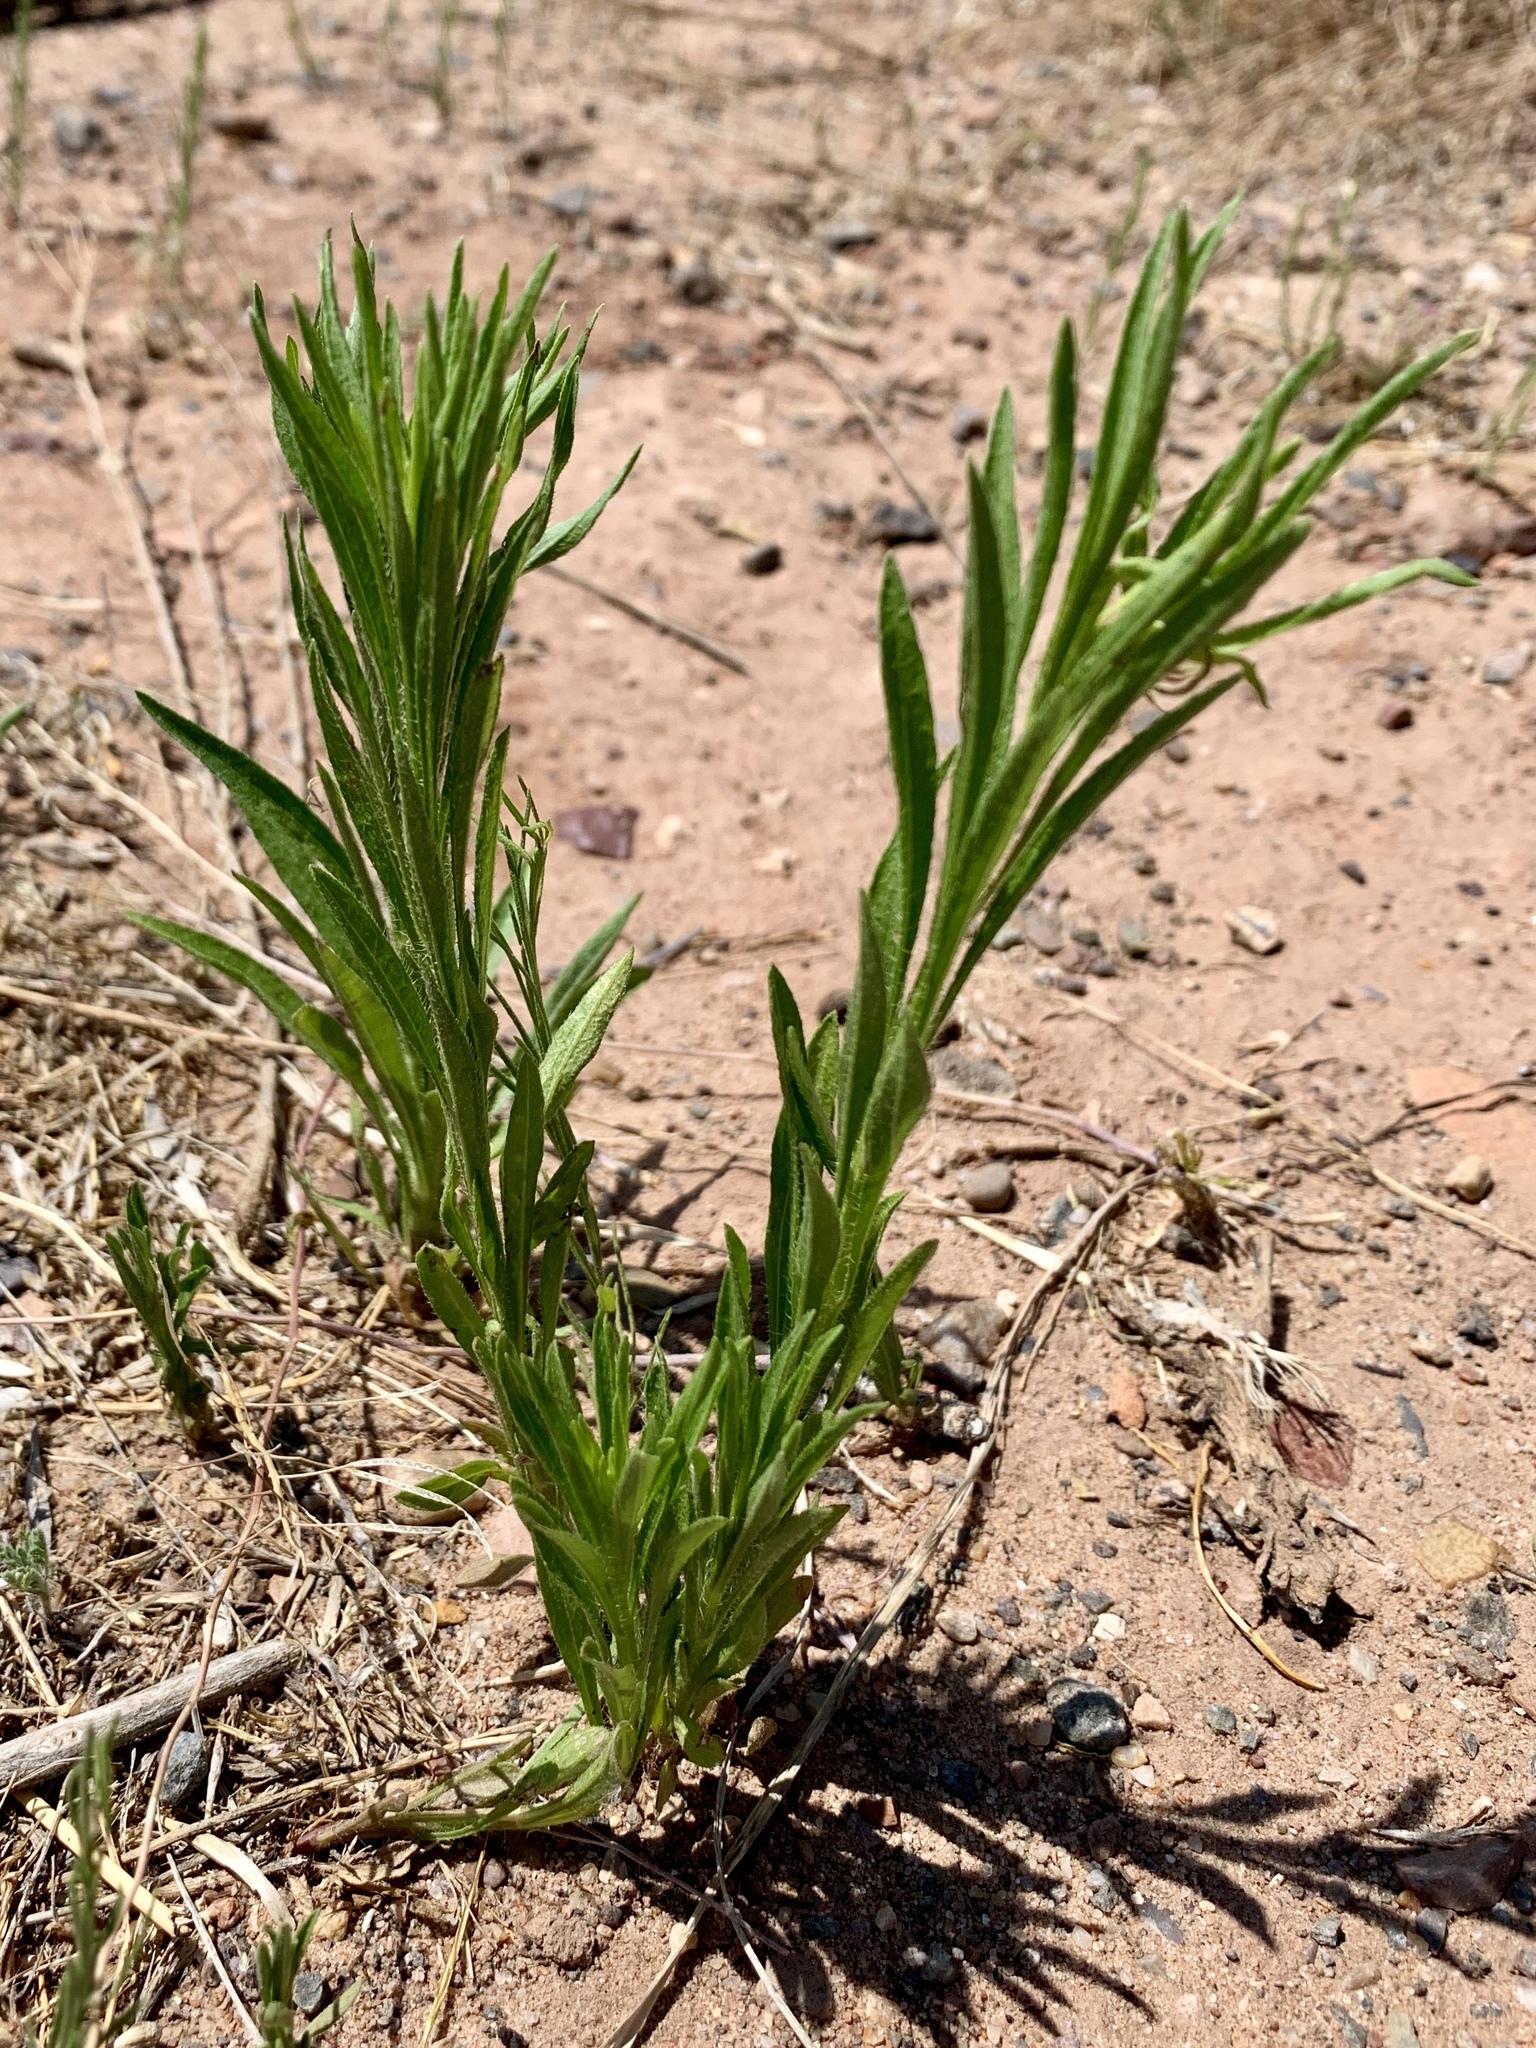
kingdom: Plantae
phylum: Tracheophyta
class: Magnoliopsida
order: Asterales
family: Asteraceae
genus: Erigeron
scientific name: Erigeron canadensis
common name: Canadian fleabane
